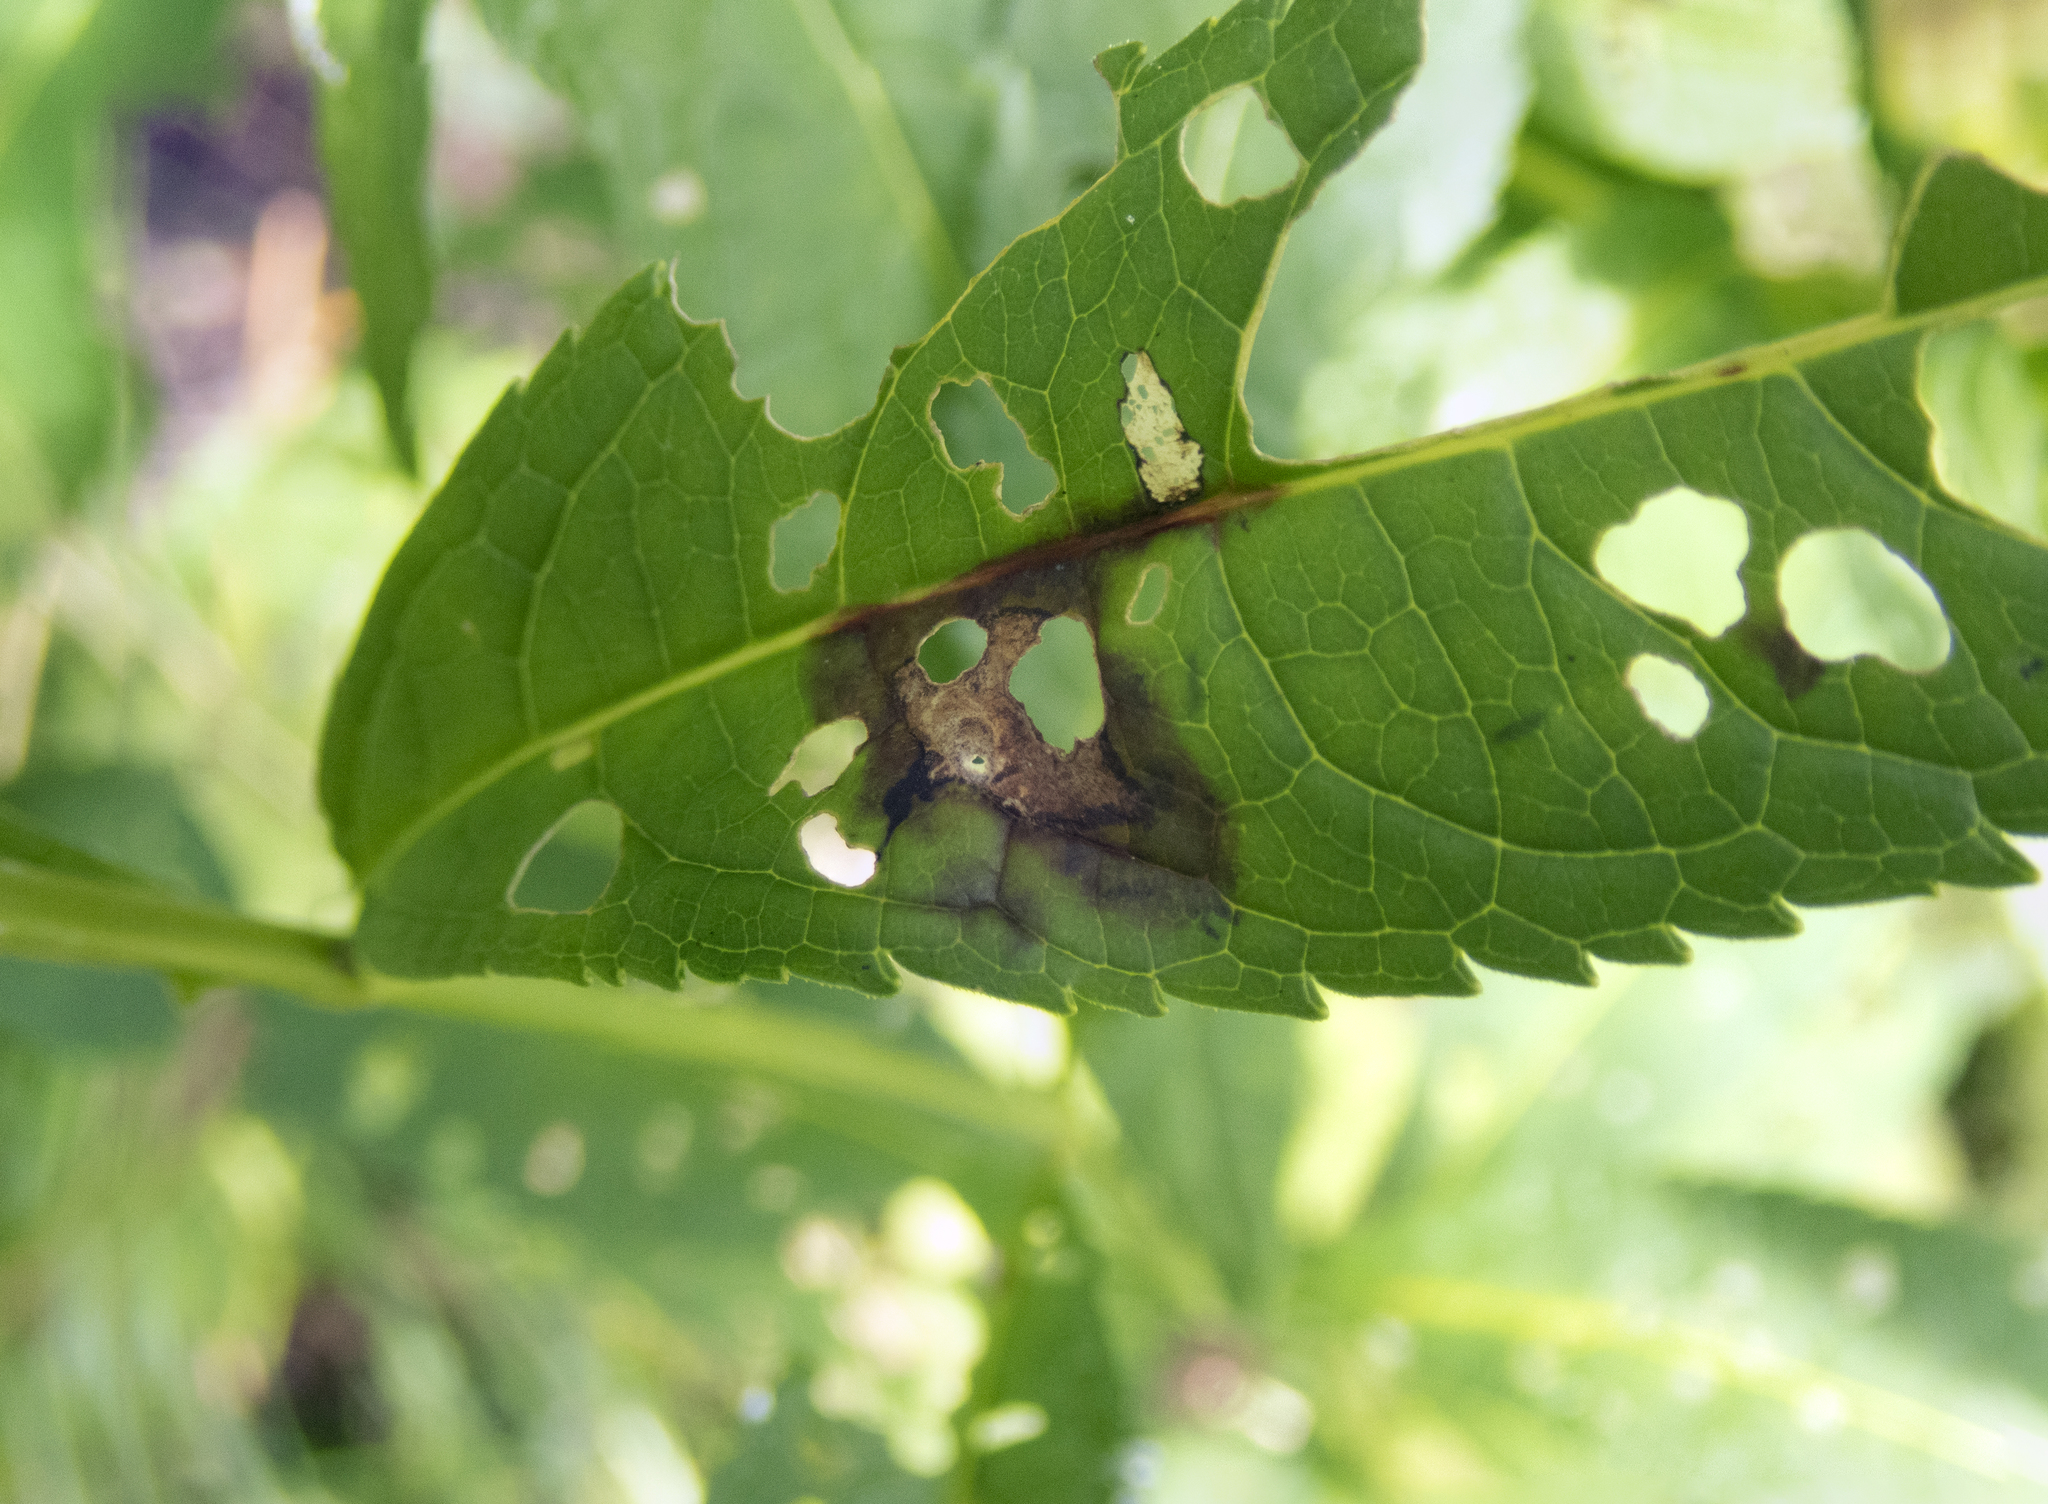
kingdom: Plantae
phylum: Tracheophyta
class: Magnoliopsida
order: Lamiales
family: Plantaginaceae
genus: Chelone
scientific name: Chelone glabra
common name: Snakehead
